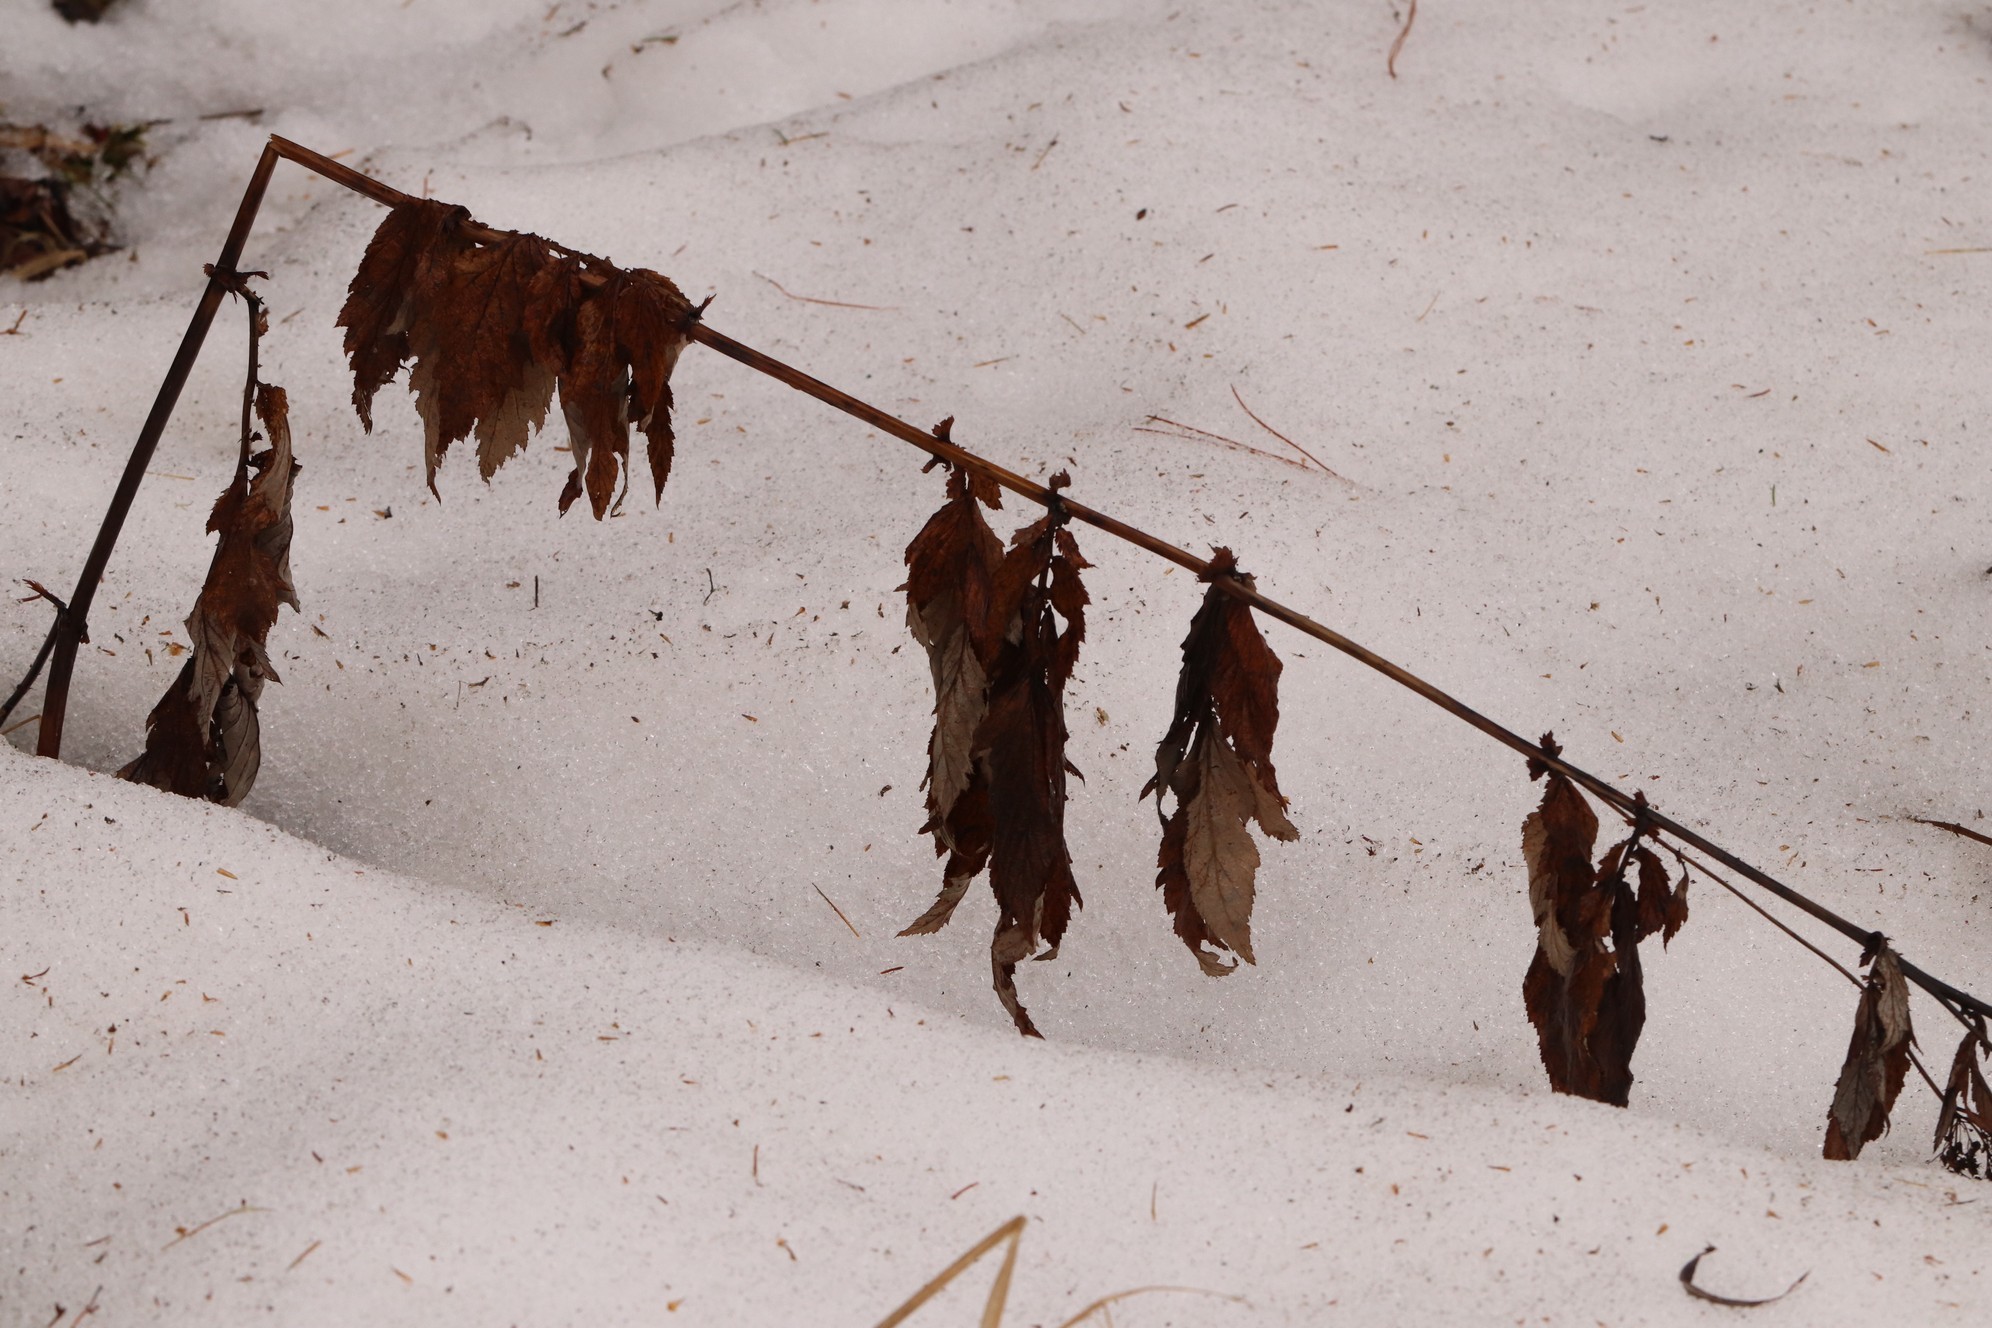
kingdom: Plantae
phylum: Tracheophyta
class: Magnoliopsida
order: Rosales
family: Rosaceae
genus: Filipendula
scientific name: Filipendula ulmaria
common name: Meadowsweet
